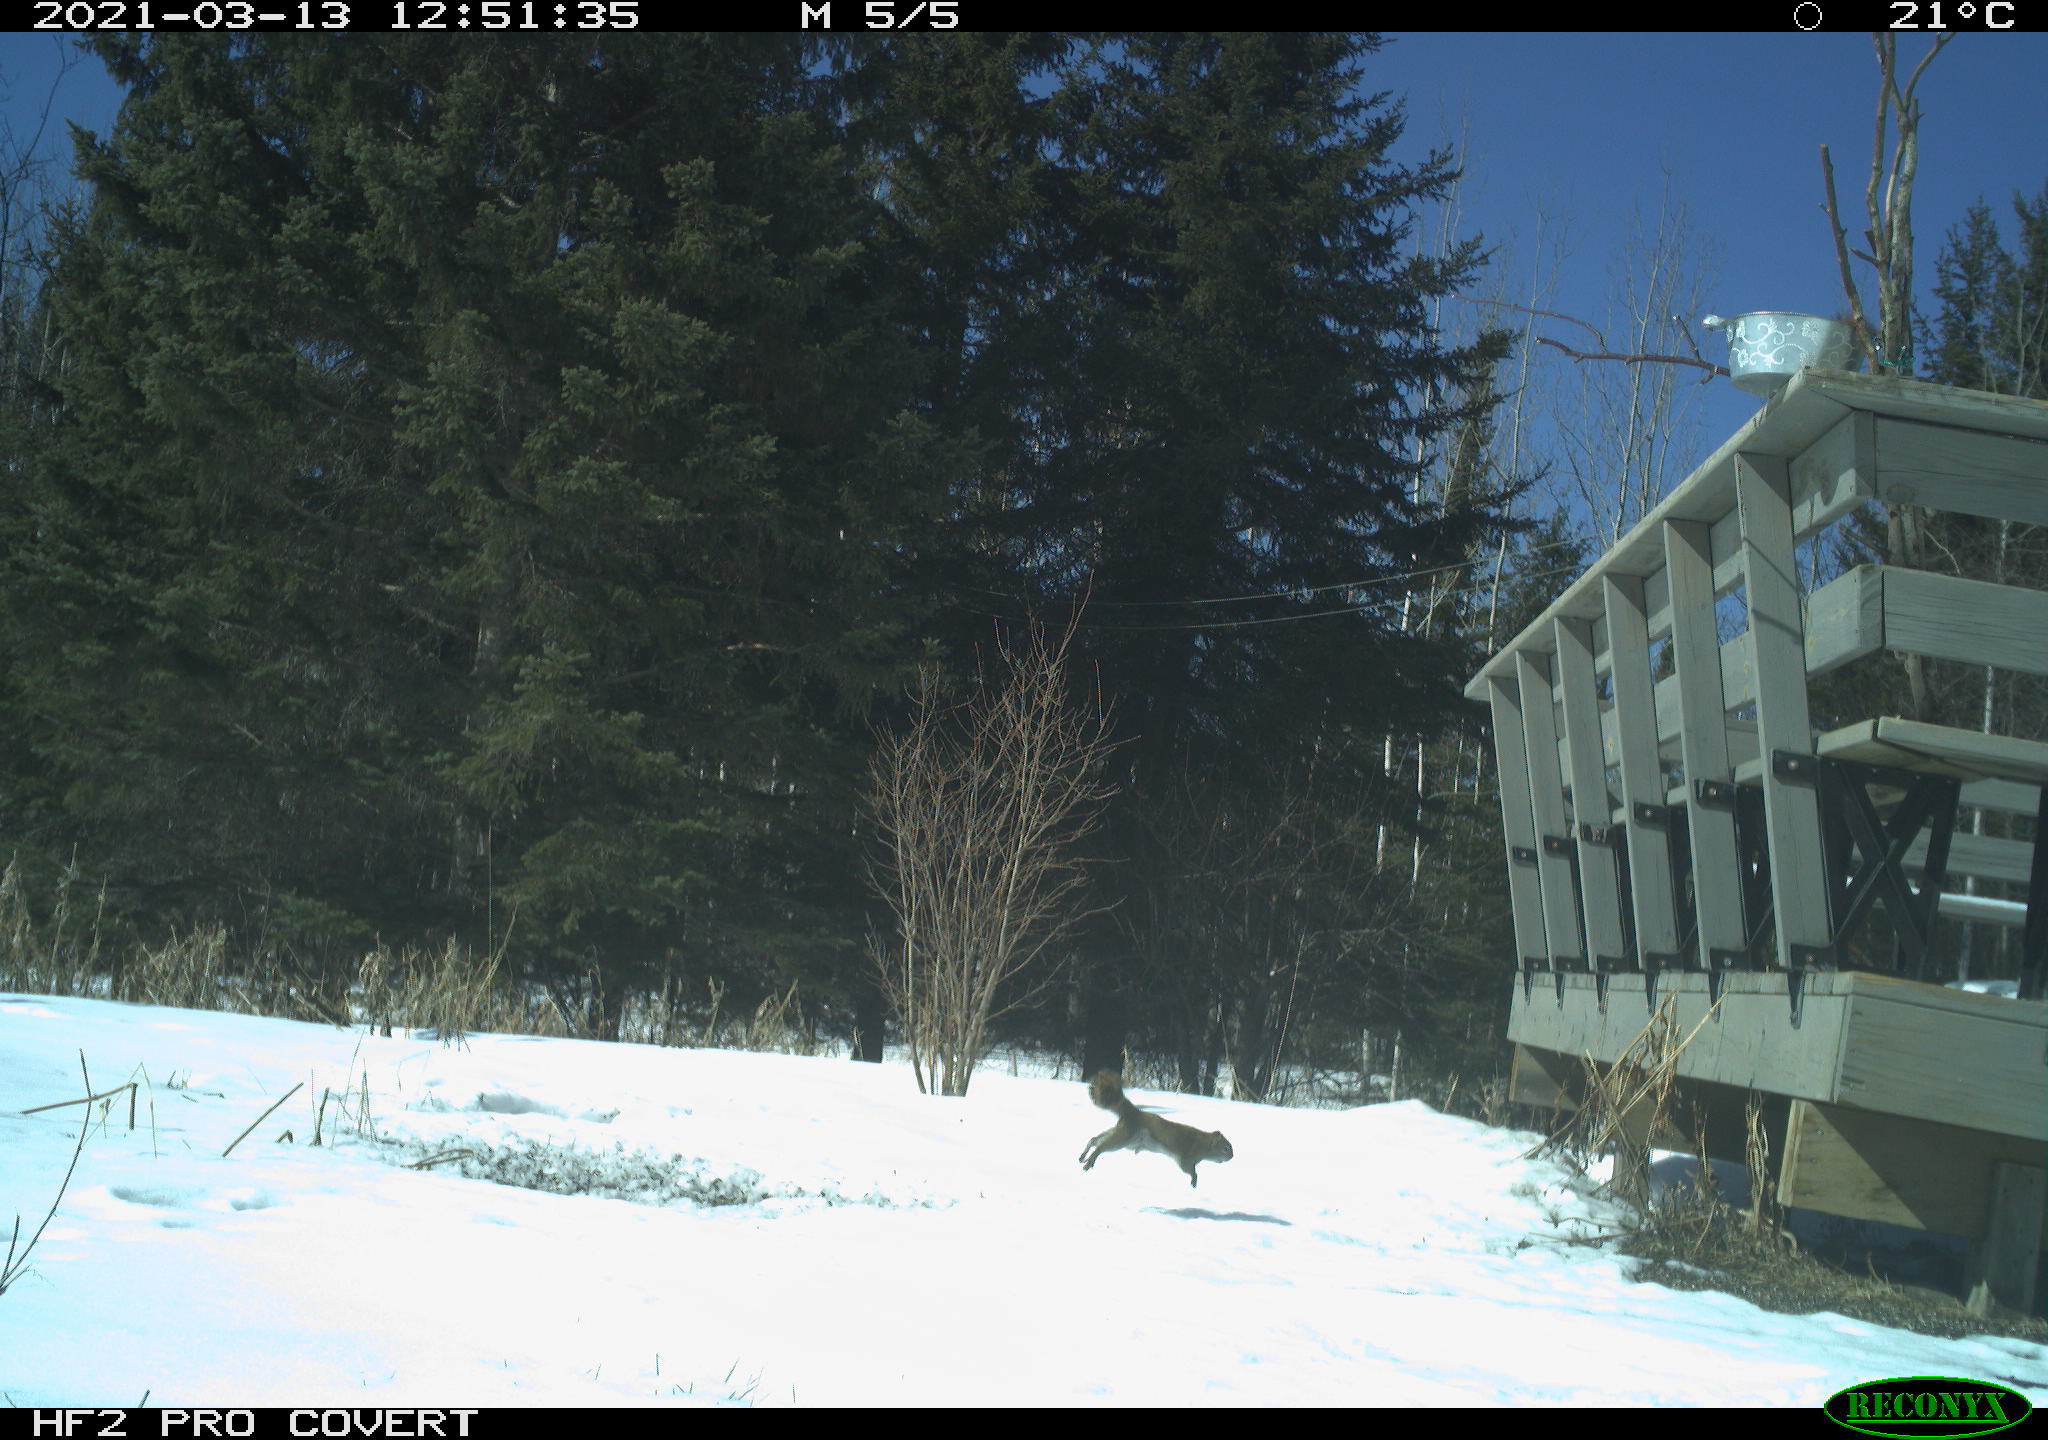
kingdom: Animalia
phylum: Chordata
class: Mammalia
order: Rodentia
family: Sciuridae
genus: Tamiasciurus
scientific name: Tamiasciurus hudsonicus
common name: Red squirrel
